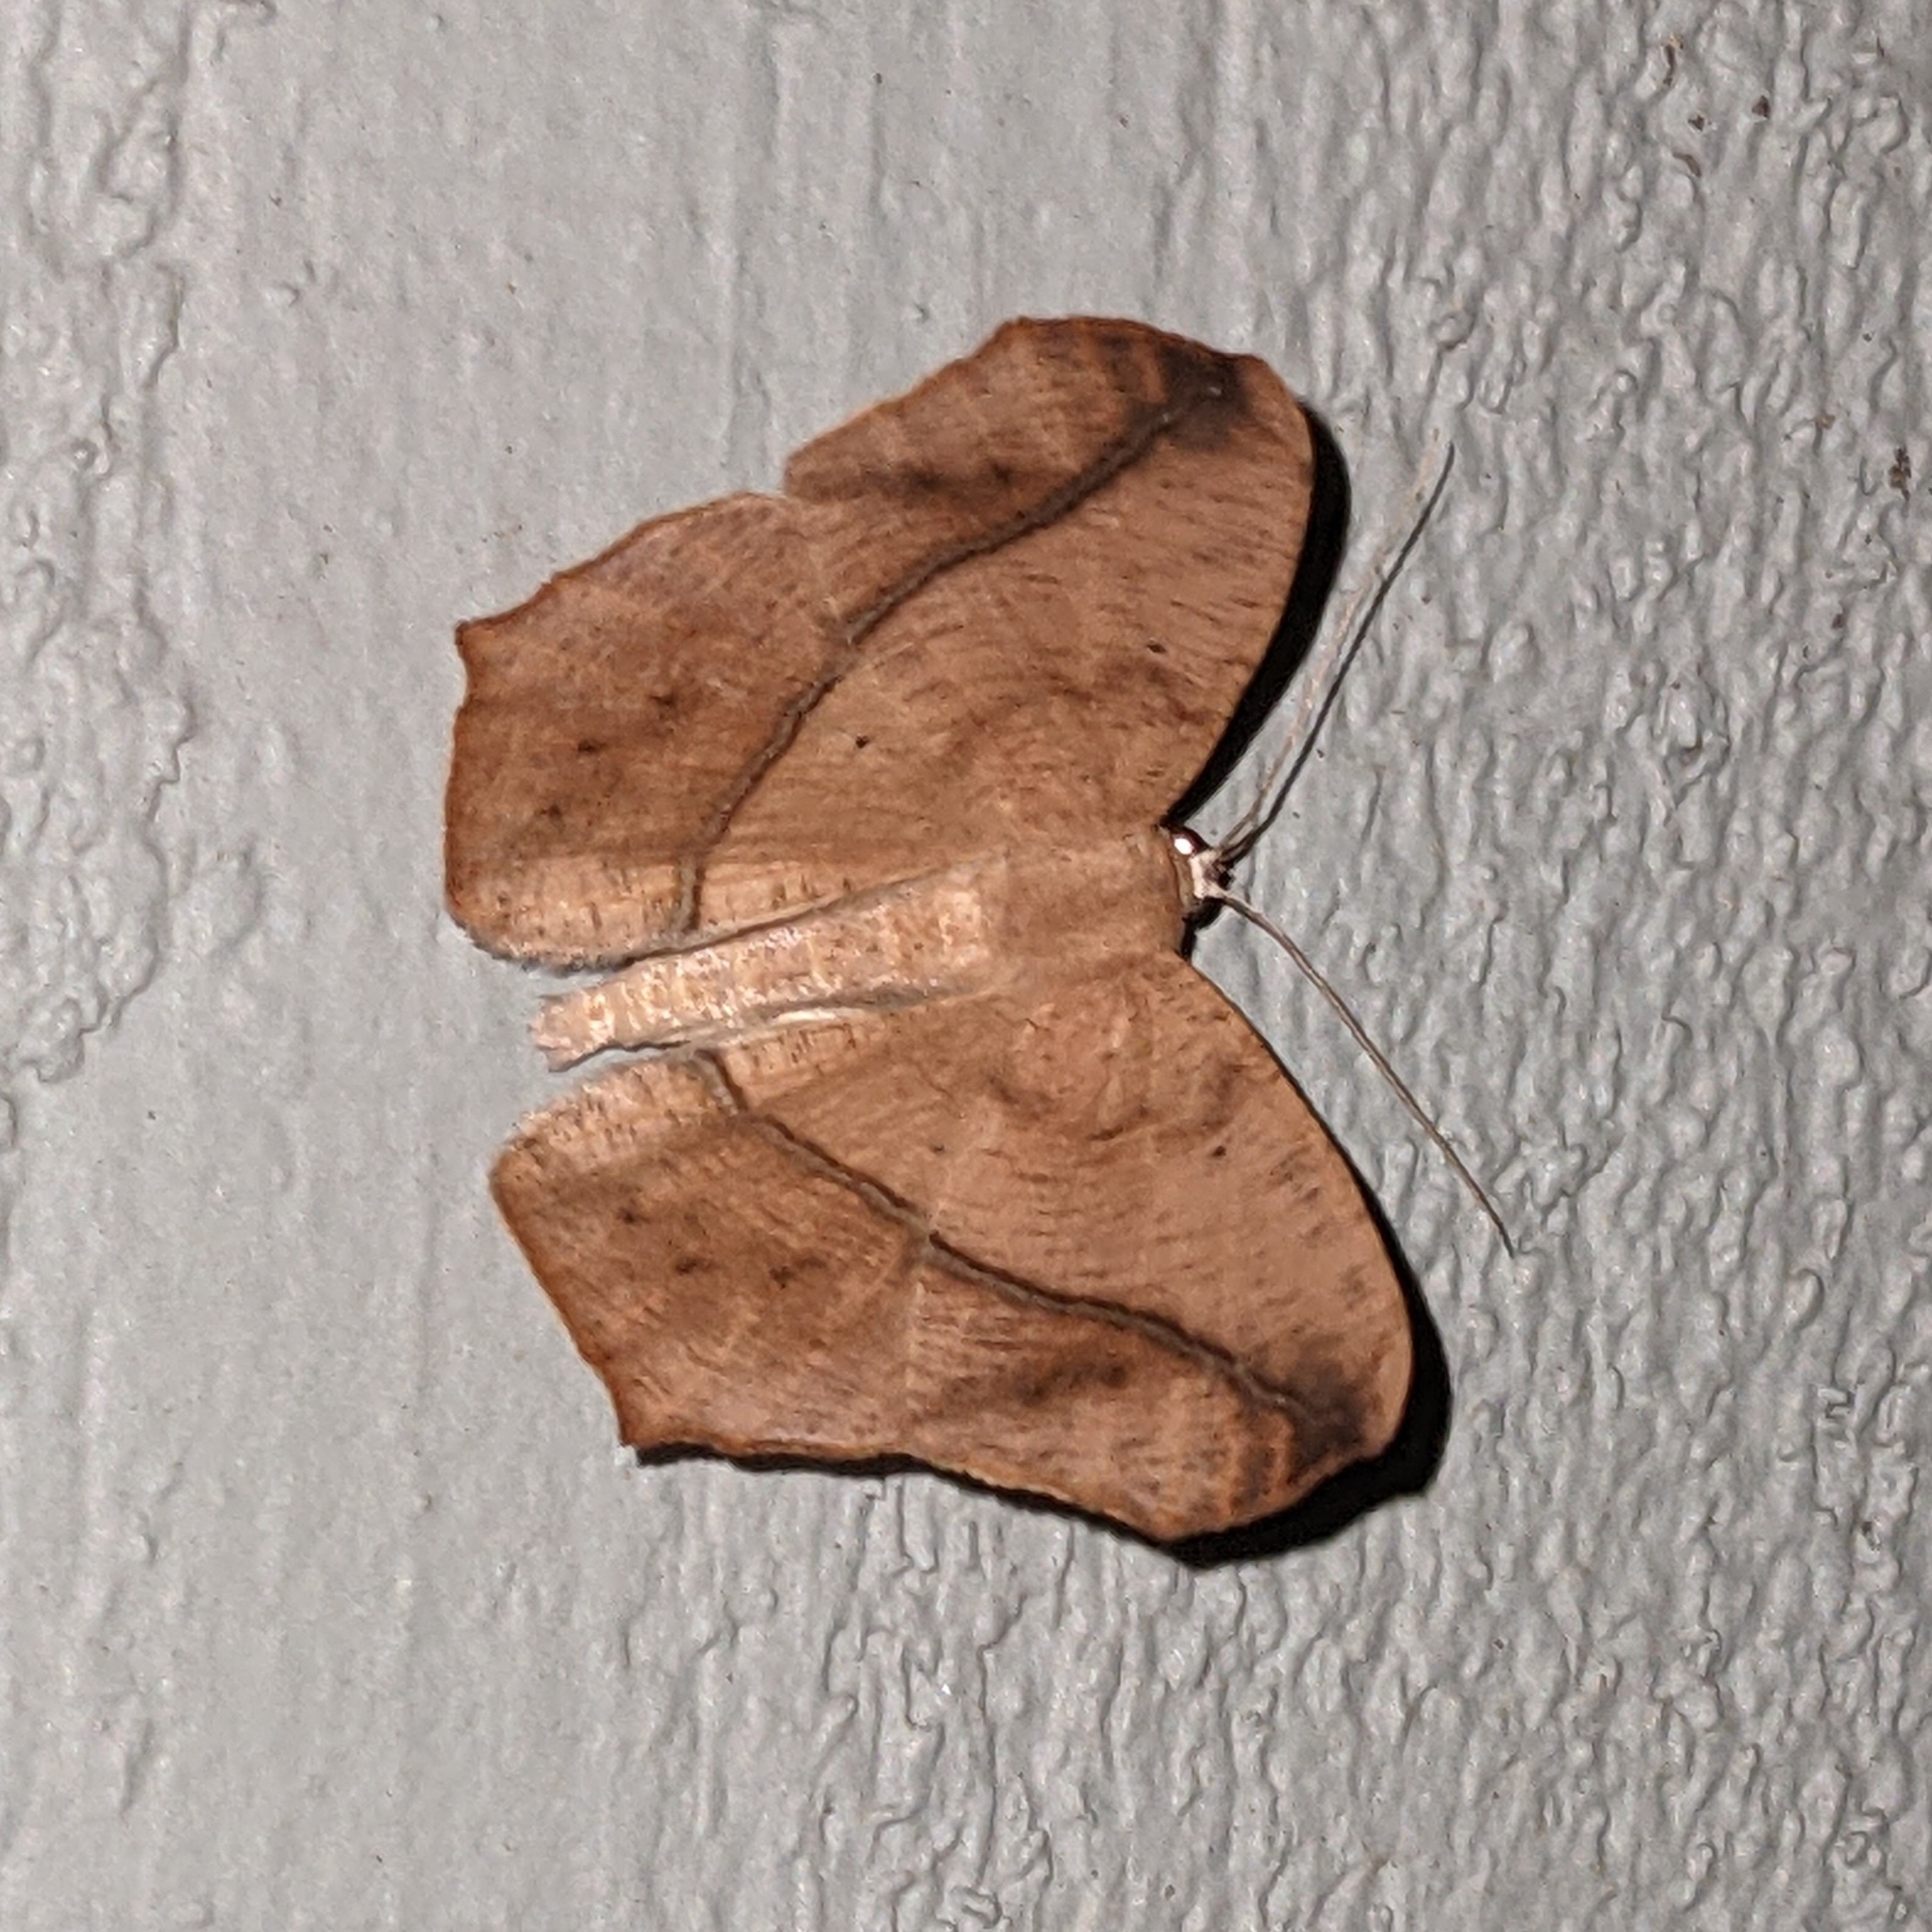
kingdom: Animalia
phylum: Arthropoda
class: Insecta
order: Lepidoptera
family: Geometridae
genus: Prochoerodes
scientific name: Prochoerodes lineola
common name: Large maple spanworm
